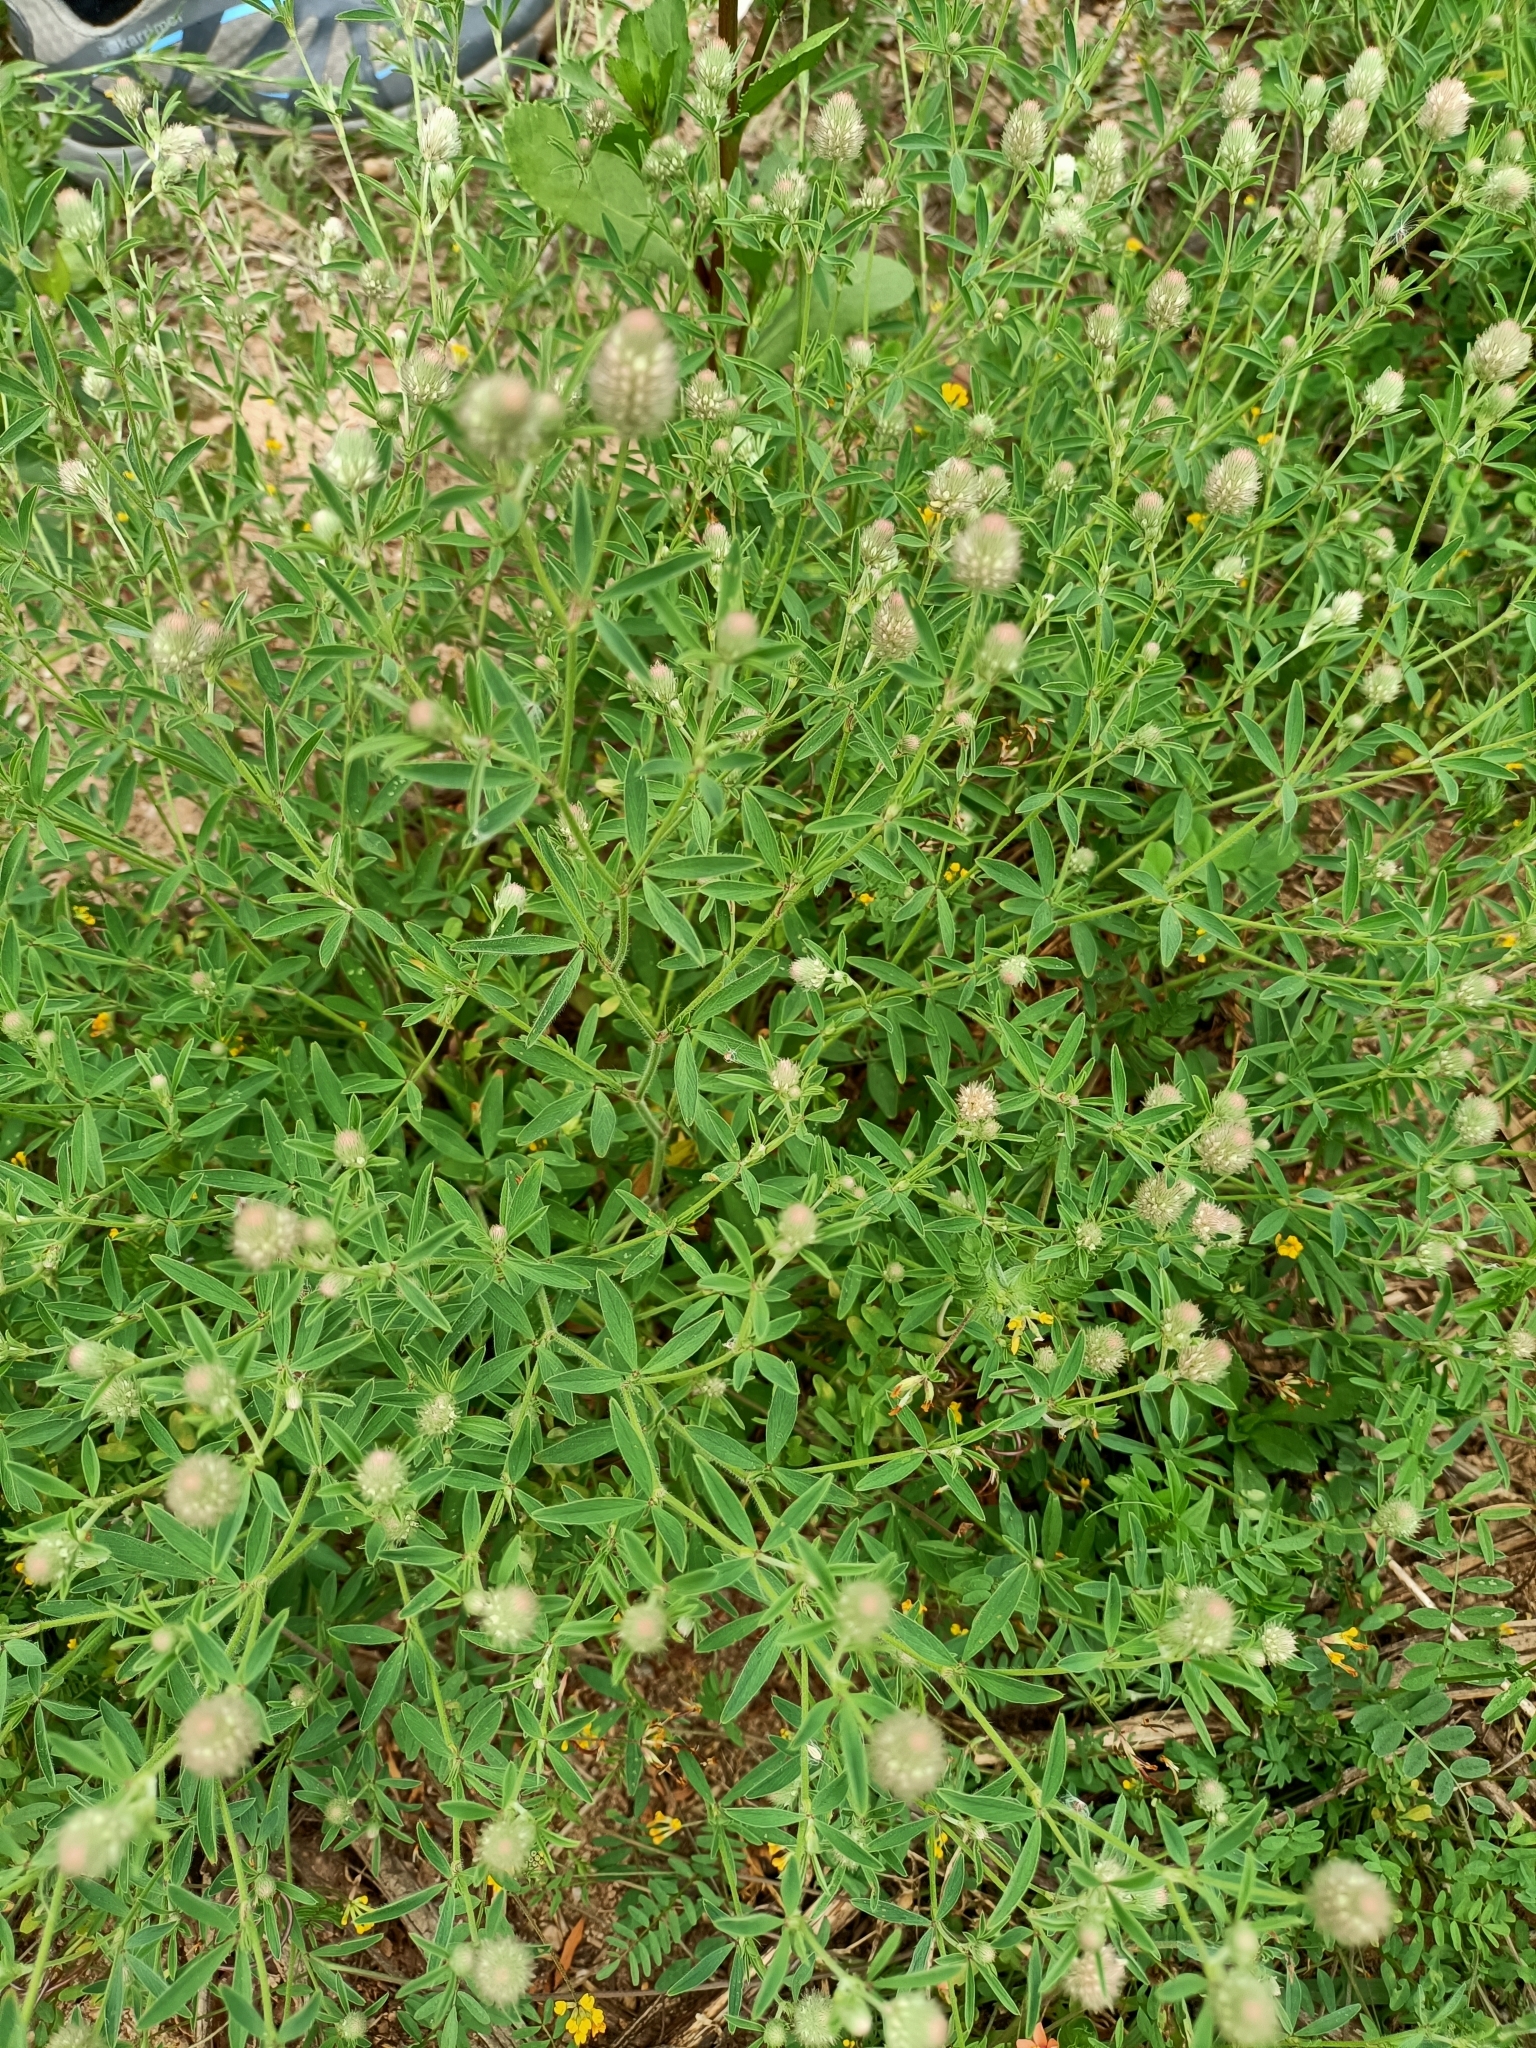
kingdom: Plantae
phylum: Tracheophyta
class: Magnoliopsida
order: Fabales
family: Fabaceae
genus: Trifolium
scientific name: Trifolium arvense
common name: Hare's-foot clover
